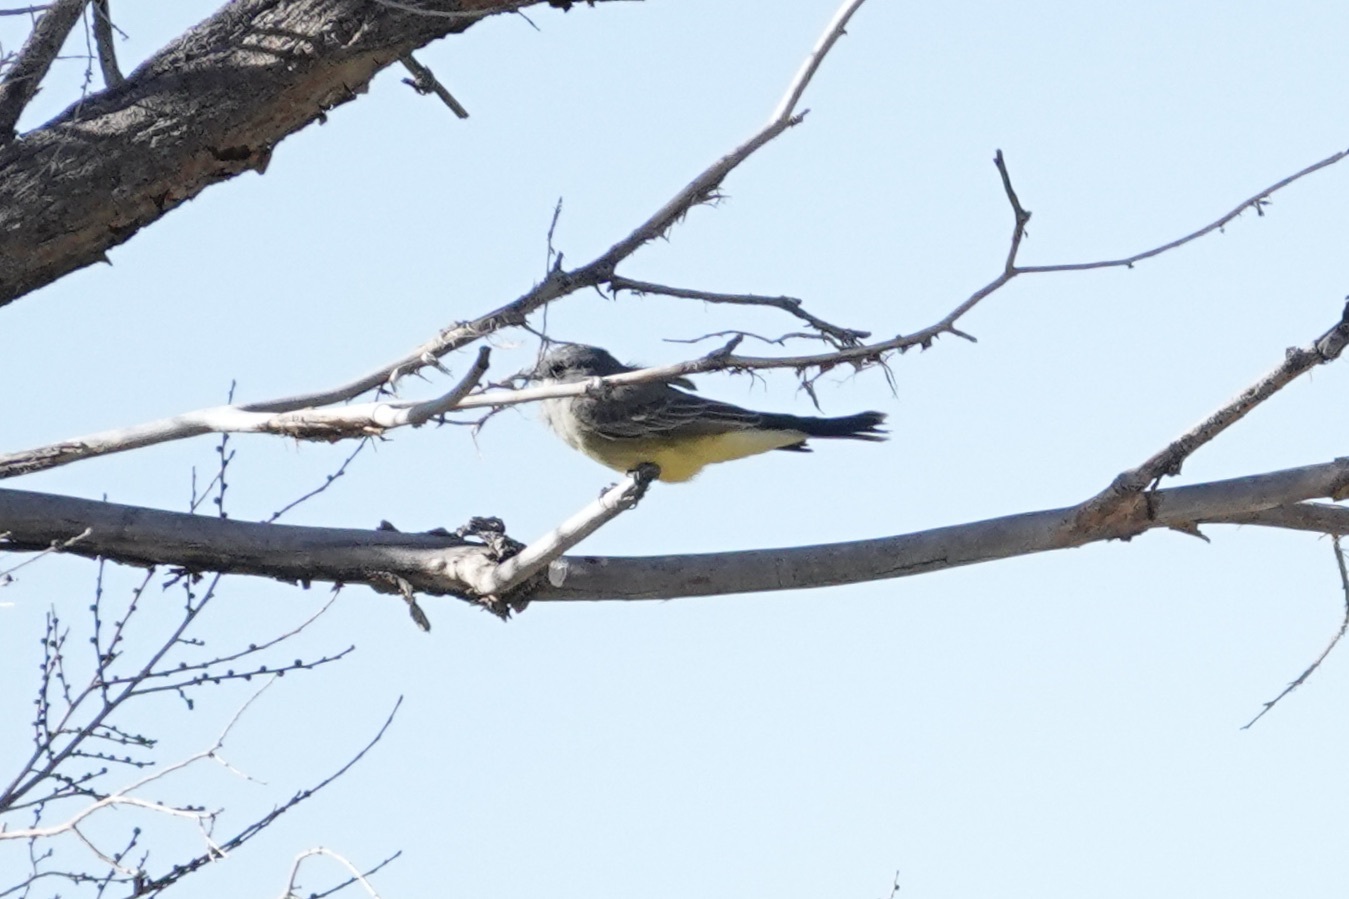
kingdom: Animalia
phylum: Chordata
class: Aves
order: Passeriformes
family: Tyrannidae
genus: Tyrannus
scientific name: Tyrannus vociferans
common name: Cassin's kingbird
